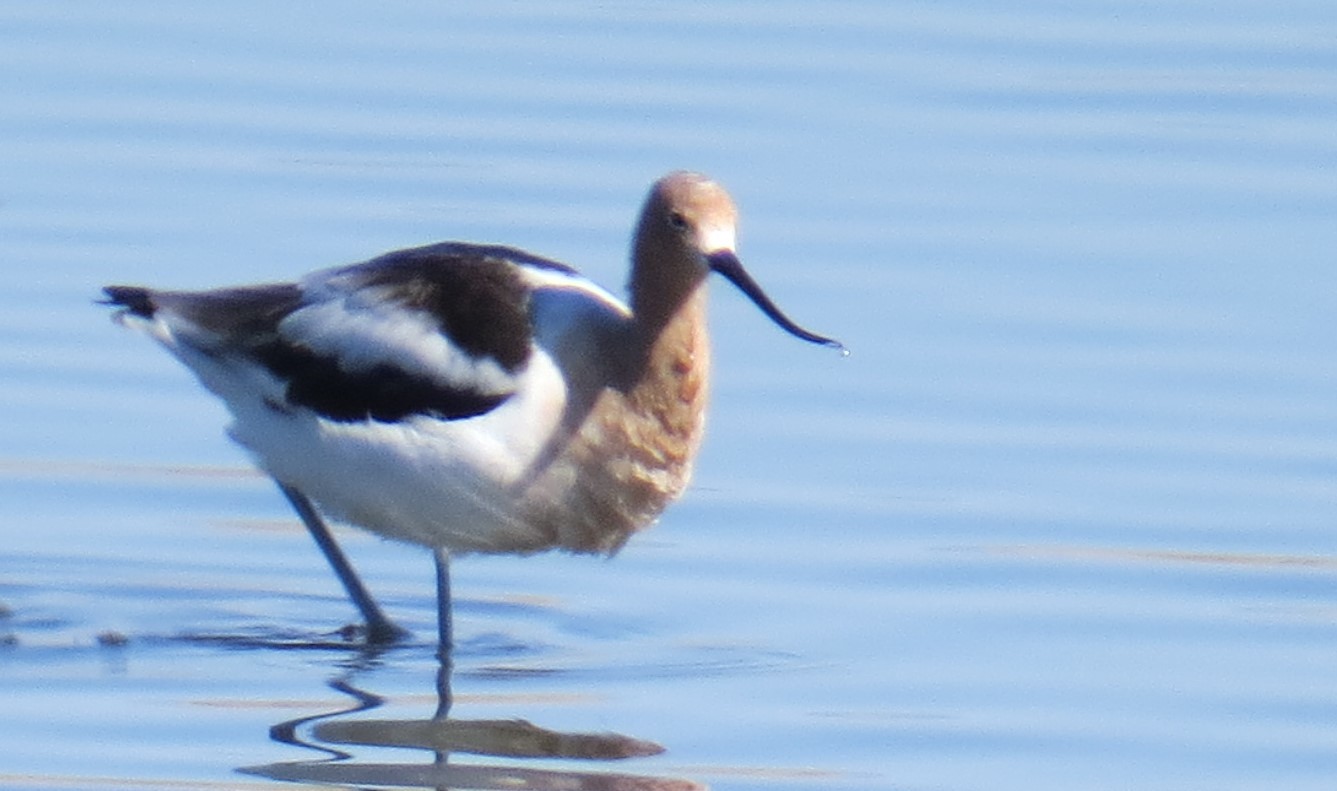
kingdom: Animalia
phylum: Chordata
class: Aves
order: Charadriiformes
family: Recurvirostridae
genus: Recurvirostra
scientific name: Recurvirostra americana
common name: American avocet
